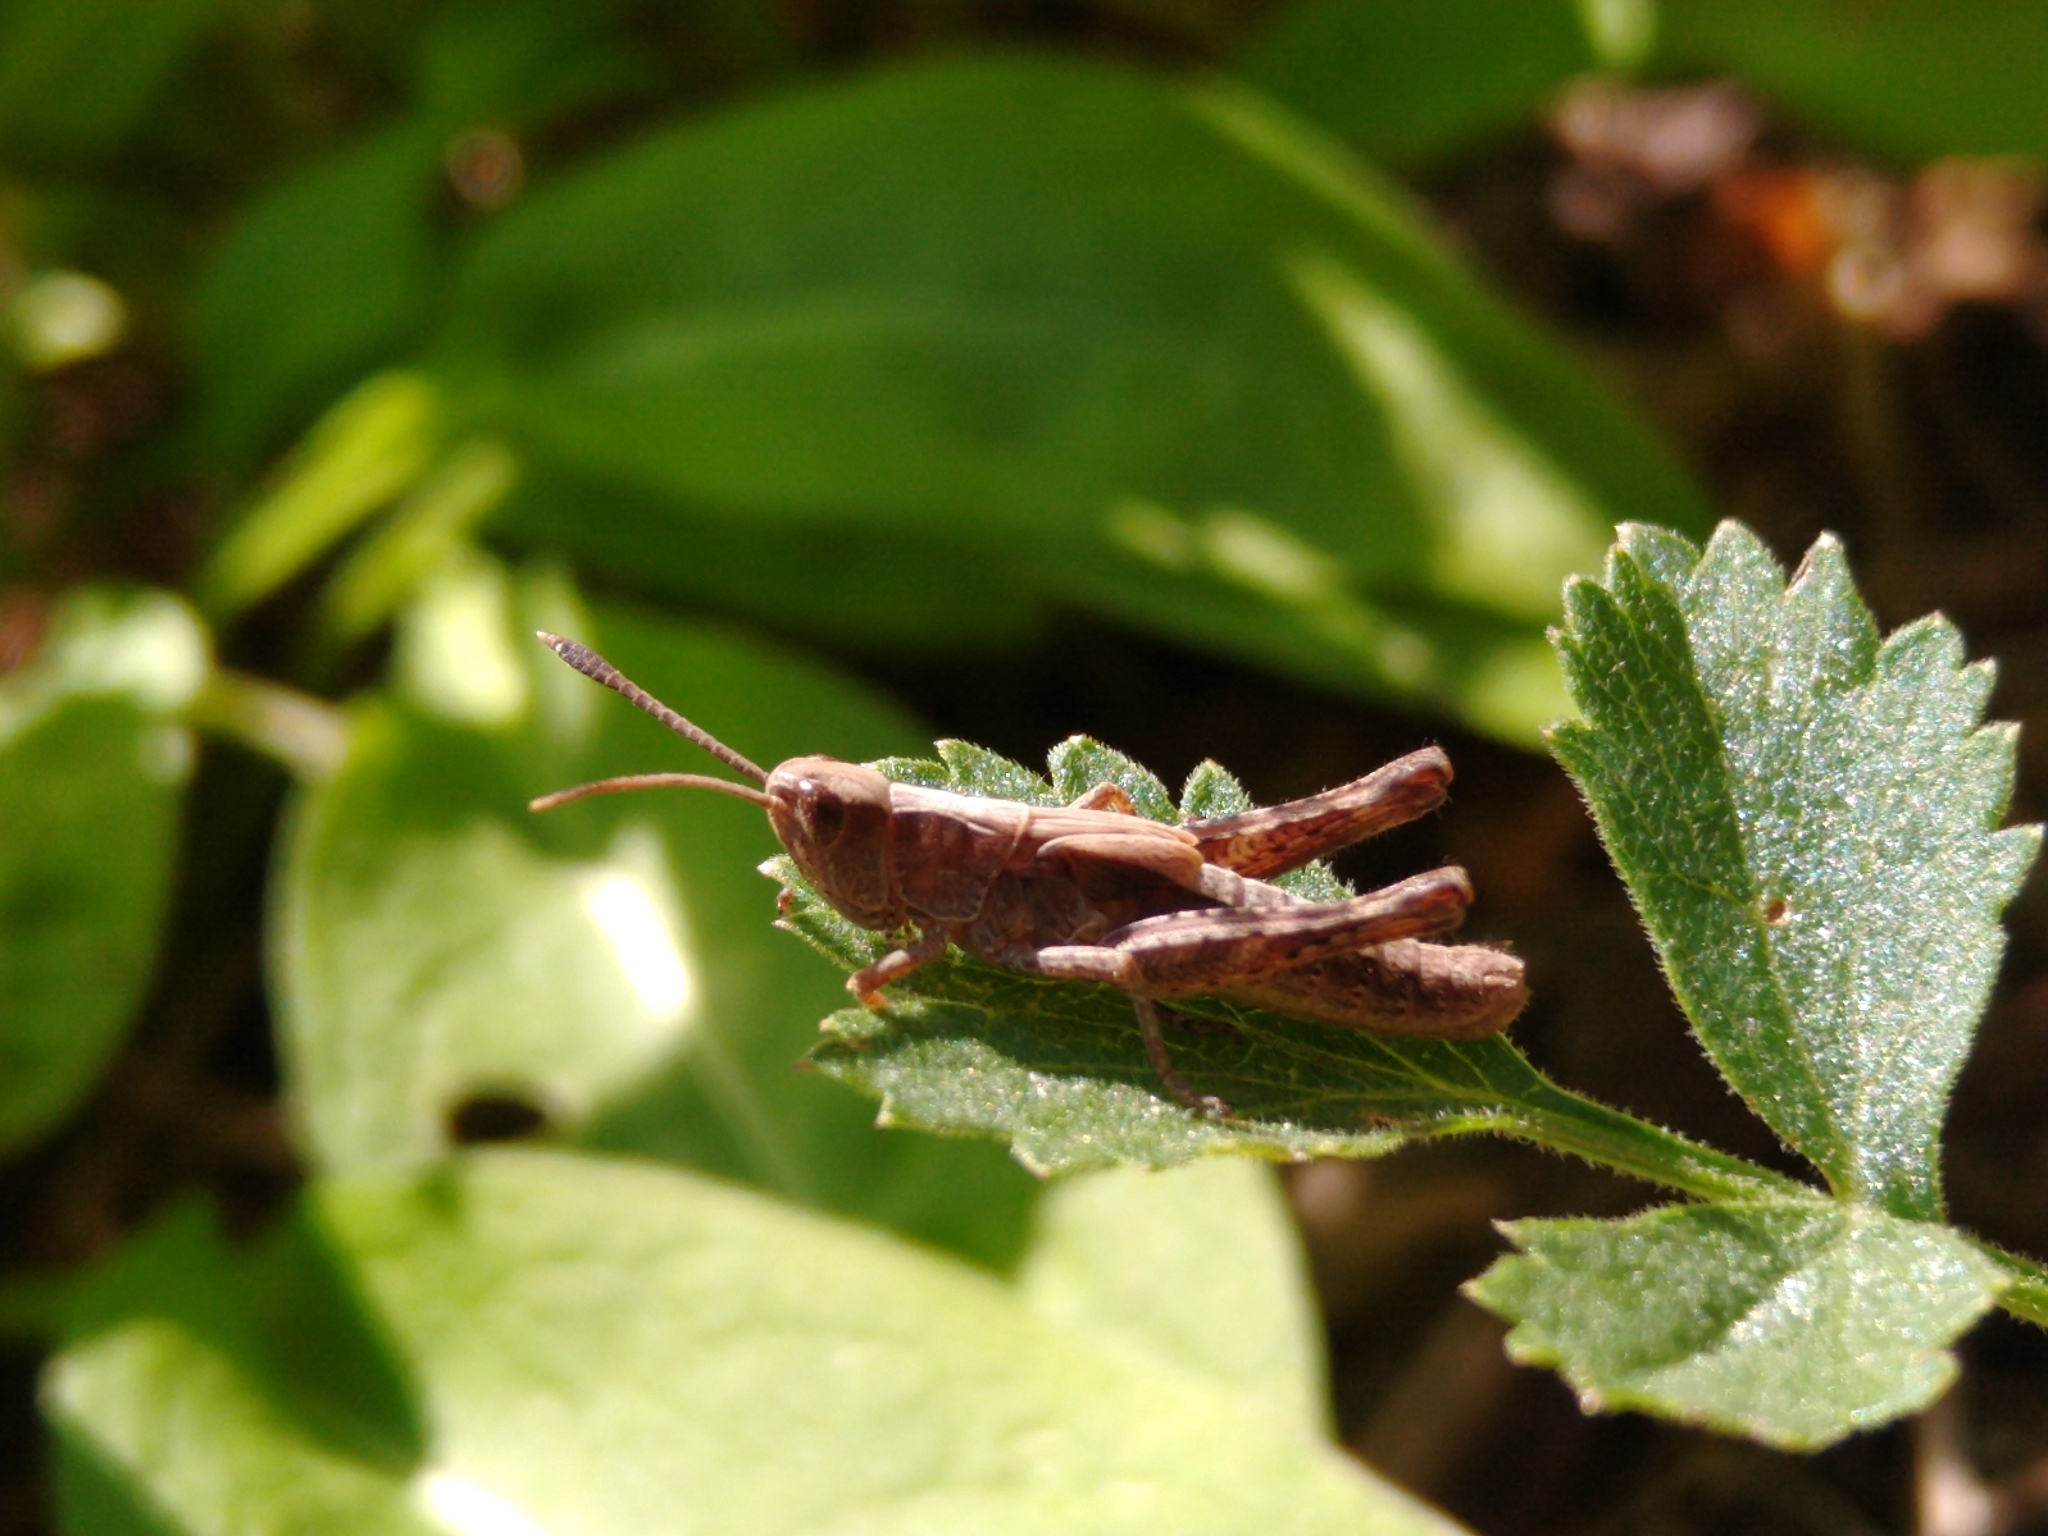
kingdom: Animalia
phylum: Arthropoda
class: Insecta
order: Orthoptera
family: Acrididae
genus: Gomphocerippus
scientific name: Gomphocerippus rufus
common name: Rufous grasshopper
